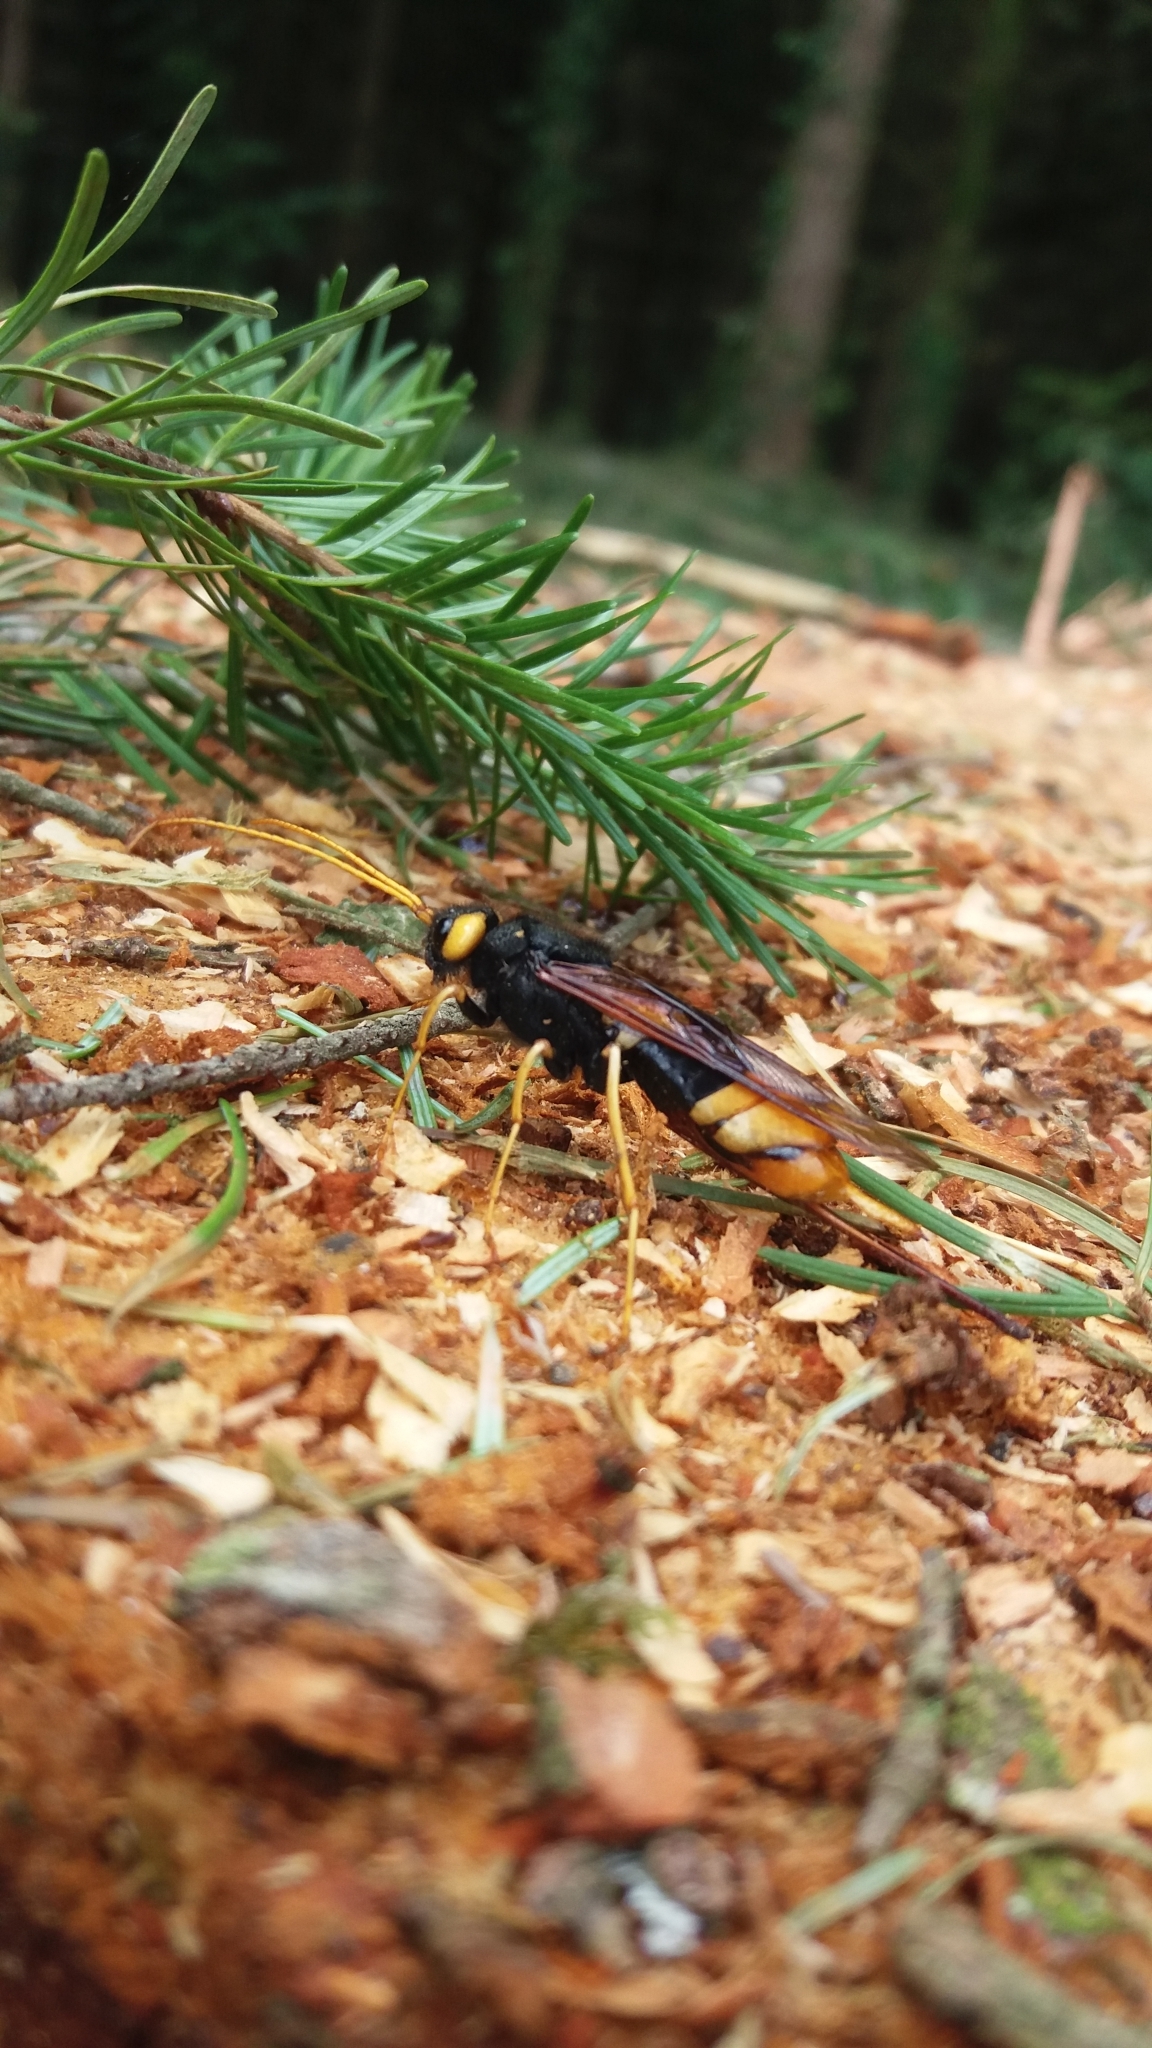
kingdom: Animalia
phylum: Arthropoda
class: Insecta
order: Hymenoptera
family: Siricidae
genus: Urocerus
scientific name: Urocerus gigas
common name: Giant woodwasp
